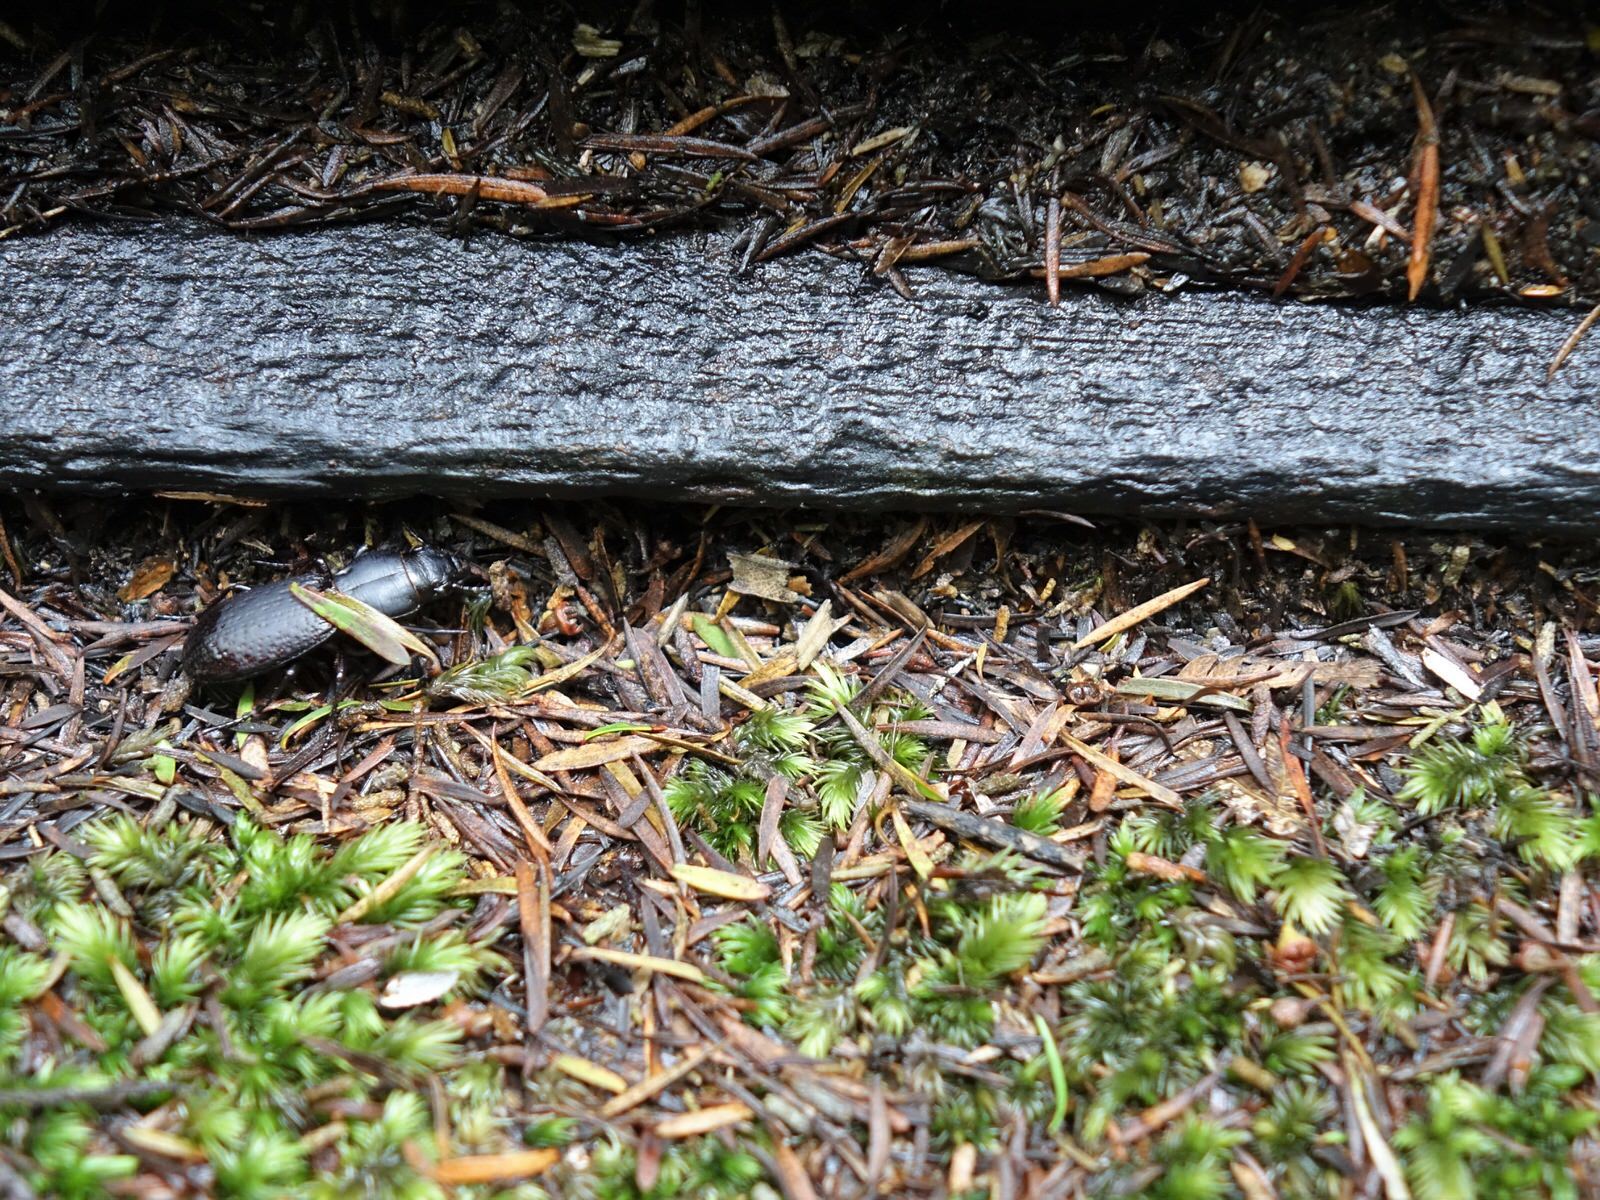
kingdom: Animalia
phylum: Arthropoda
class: Insecta
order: Coleoptera
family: Carabidae
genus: Mecodema
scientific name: Mecodema crenaticolle
